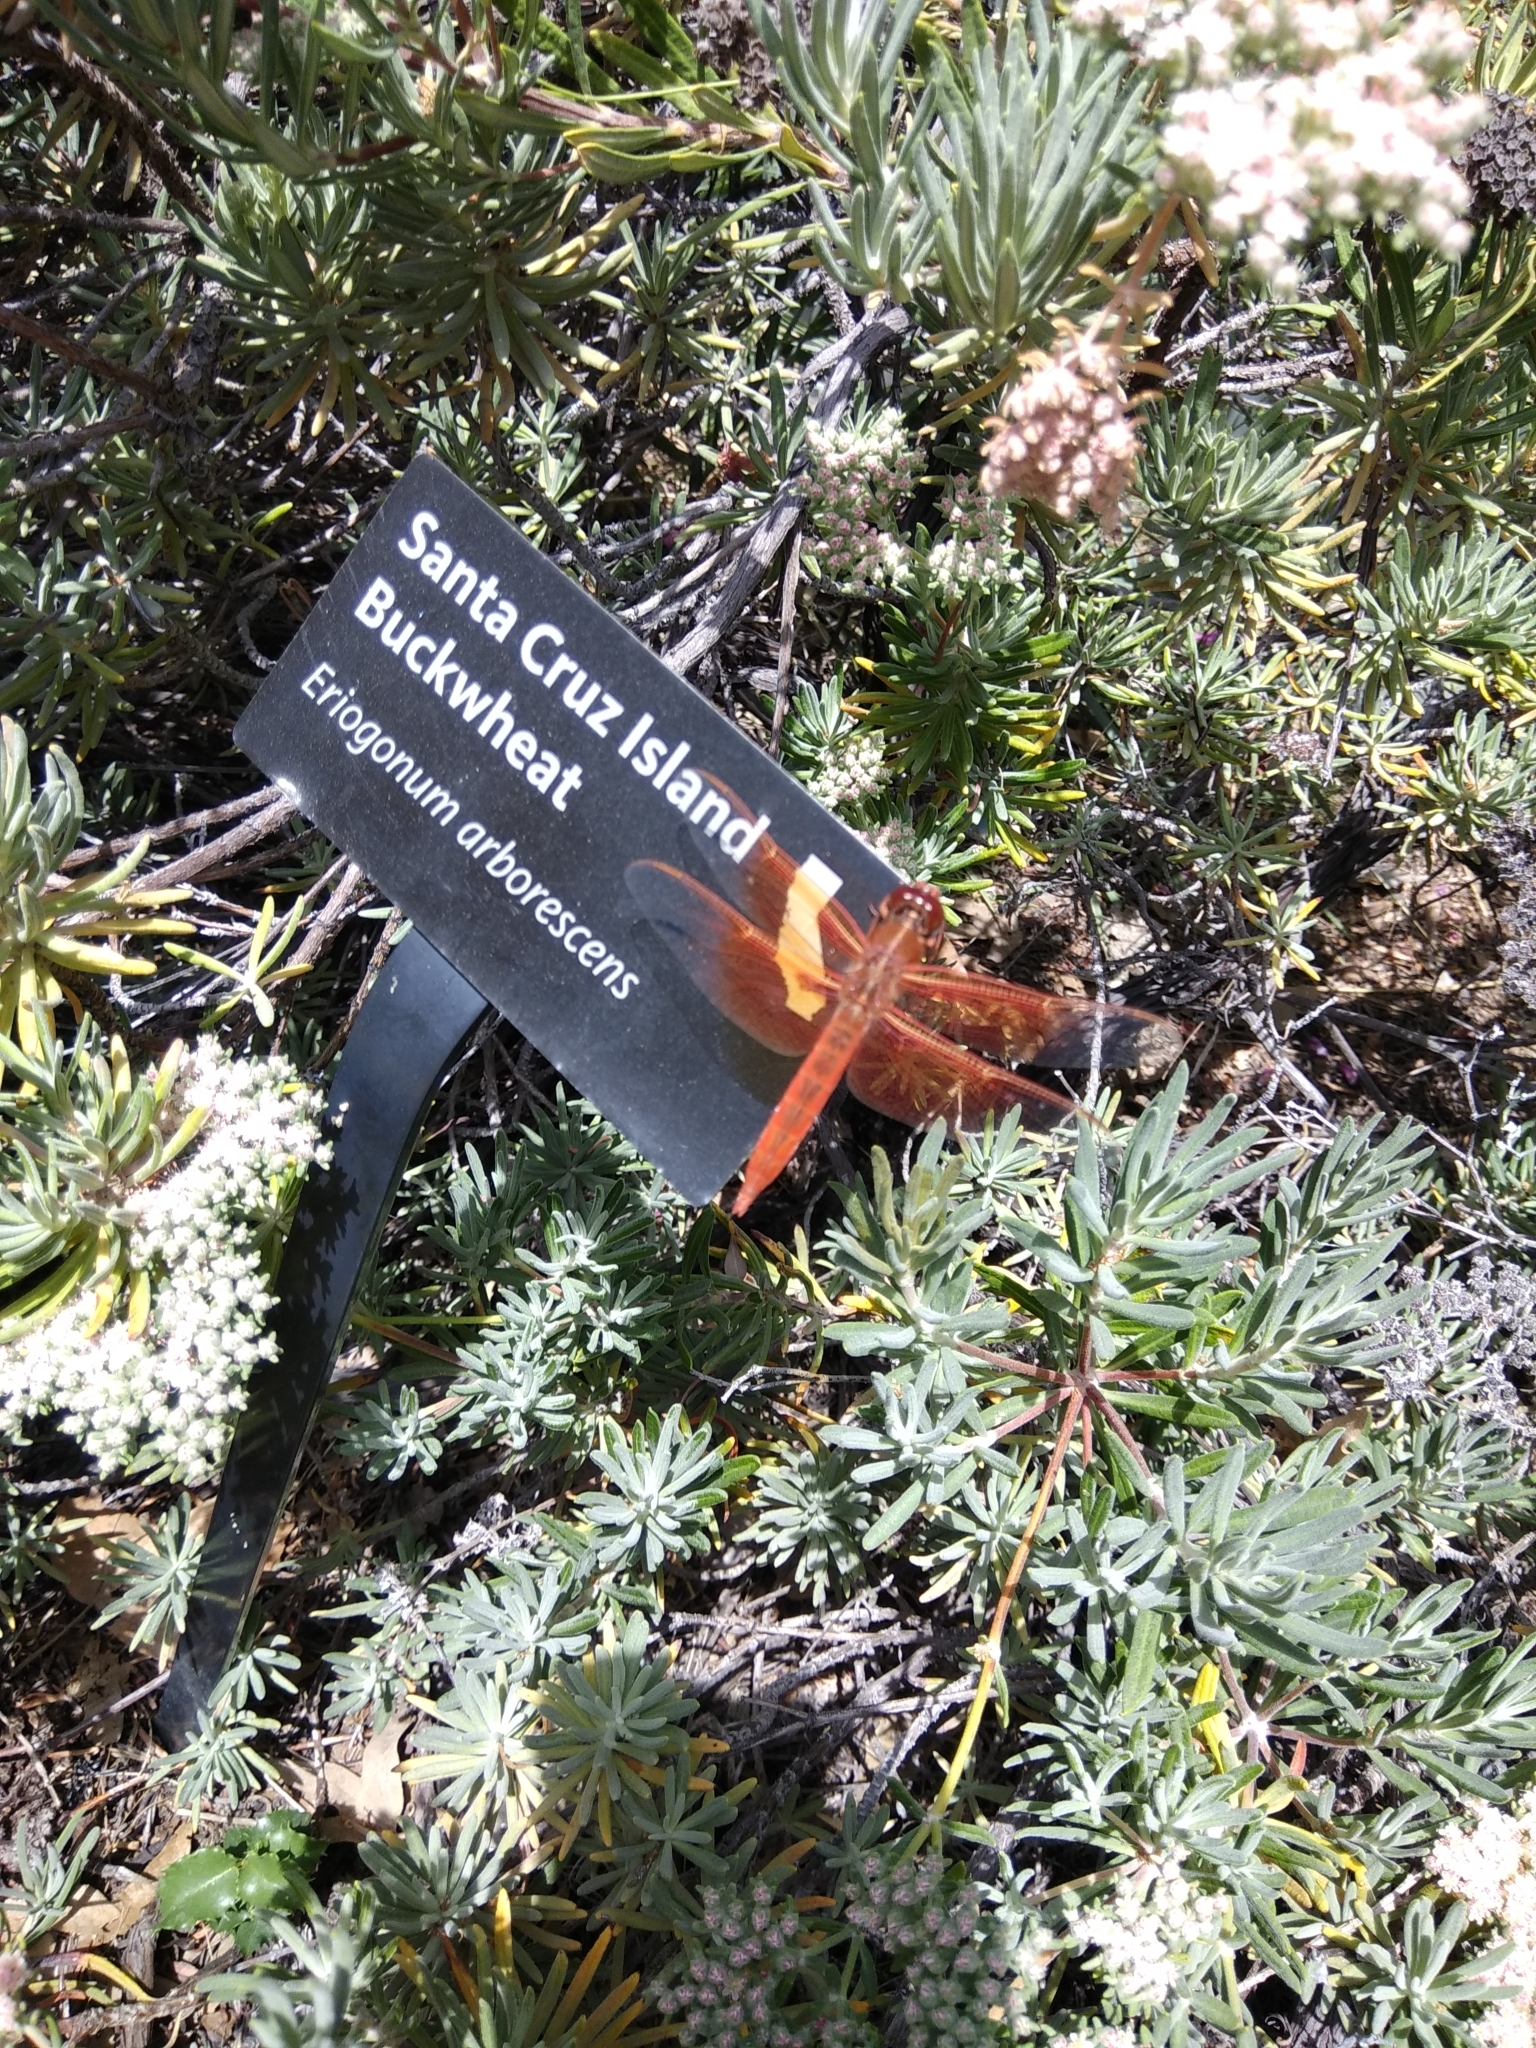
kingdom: Animalia
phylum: Arthropoda
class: Insecta
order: Odonata
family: Libellulidae
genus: Libellula
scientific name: Libellula saturata
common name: Flame skimmer
